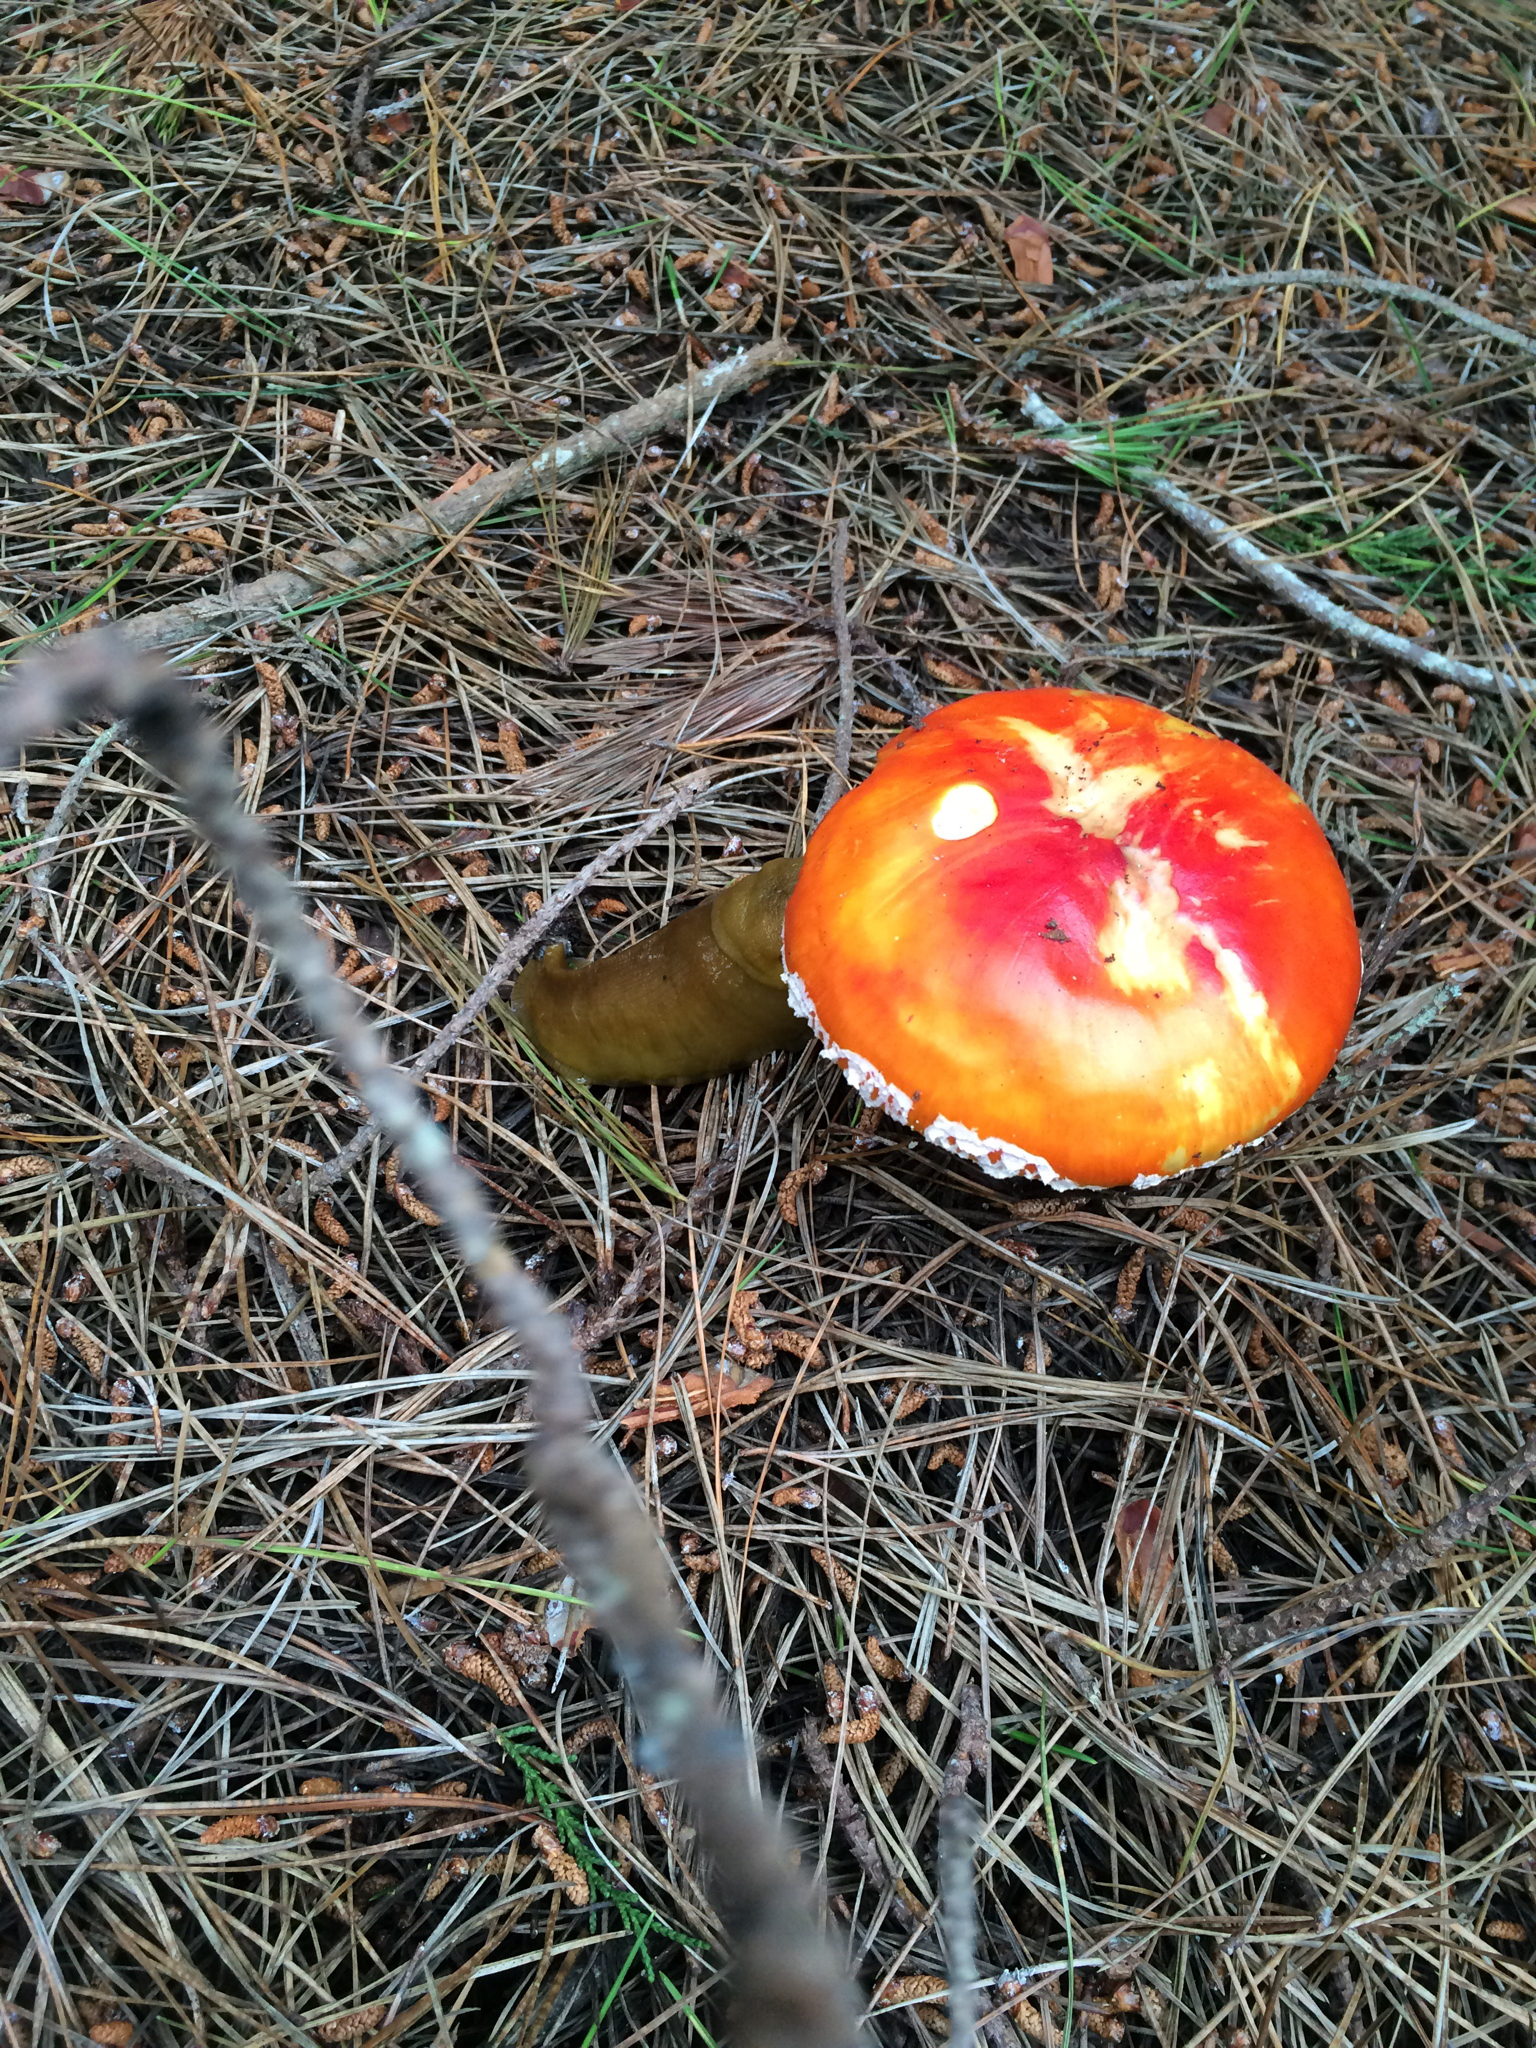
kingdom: Fungi
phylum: Basidiomycota
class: Agaricomycetes
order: Agaricales
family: Amanitaceae
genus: Amanita
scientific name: Amanita muscaria
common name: Fly agaric
